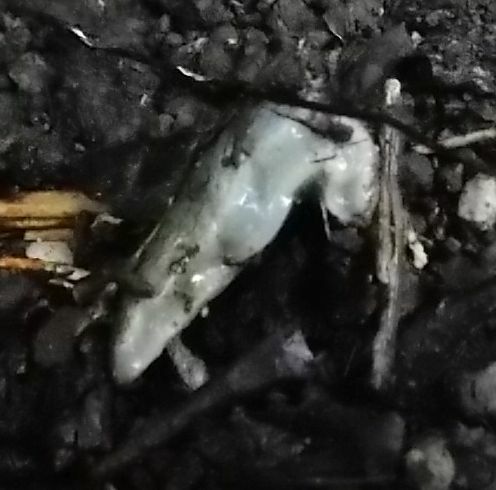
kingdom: Animalia
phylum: Mollusca
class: Gastropoda
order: Stylommatophora
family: Milacidae
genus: Tandonia
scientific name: Tandonia sowerbyi
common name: Keeled slug
